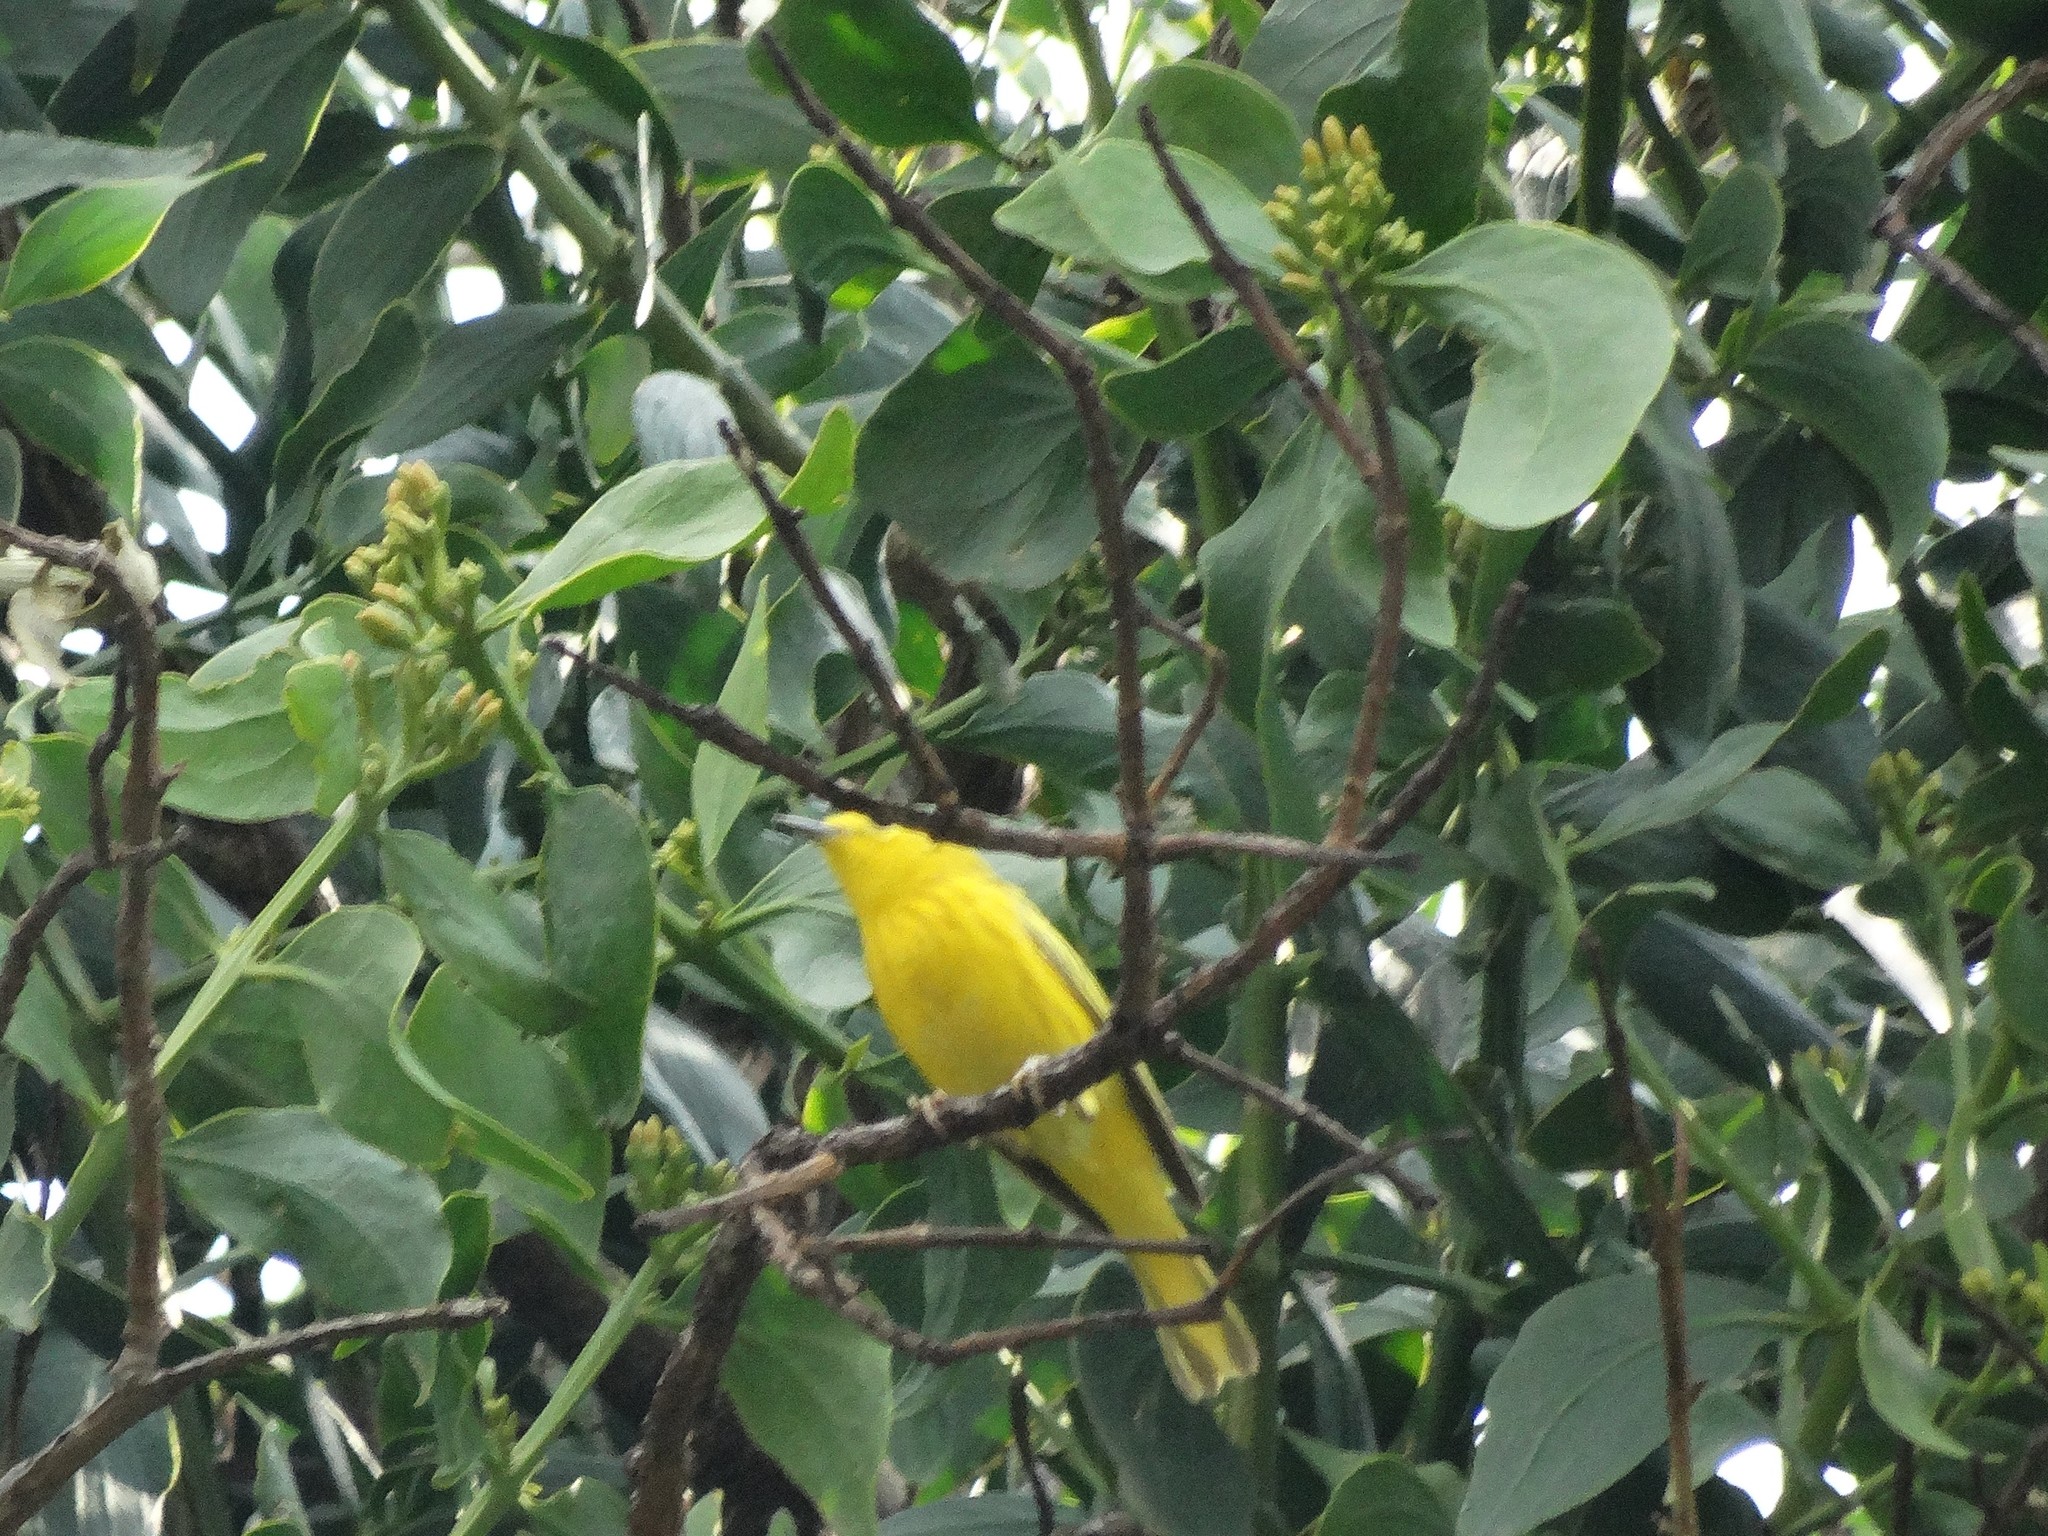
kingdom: Animalia
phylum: Chordata
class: Aves
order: Passeriformes
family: Parulidae
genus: Setophaga
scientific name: Setophaga petechia
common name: Yellow warbler
